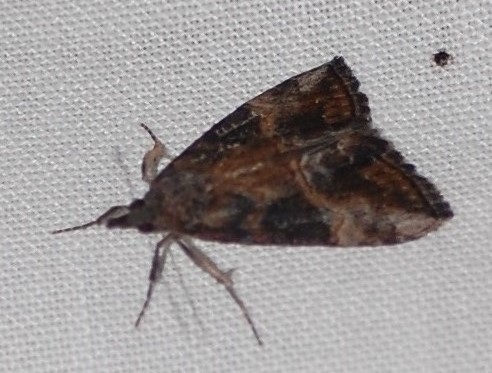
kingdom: Animalia
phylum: Arthropoda
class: Insecta
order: Lepidoptera
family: Erebidae
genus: Hypena
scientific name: Hypena scabra
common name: Green cloverworm
